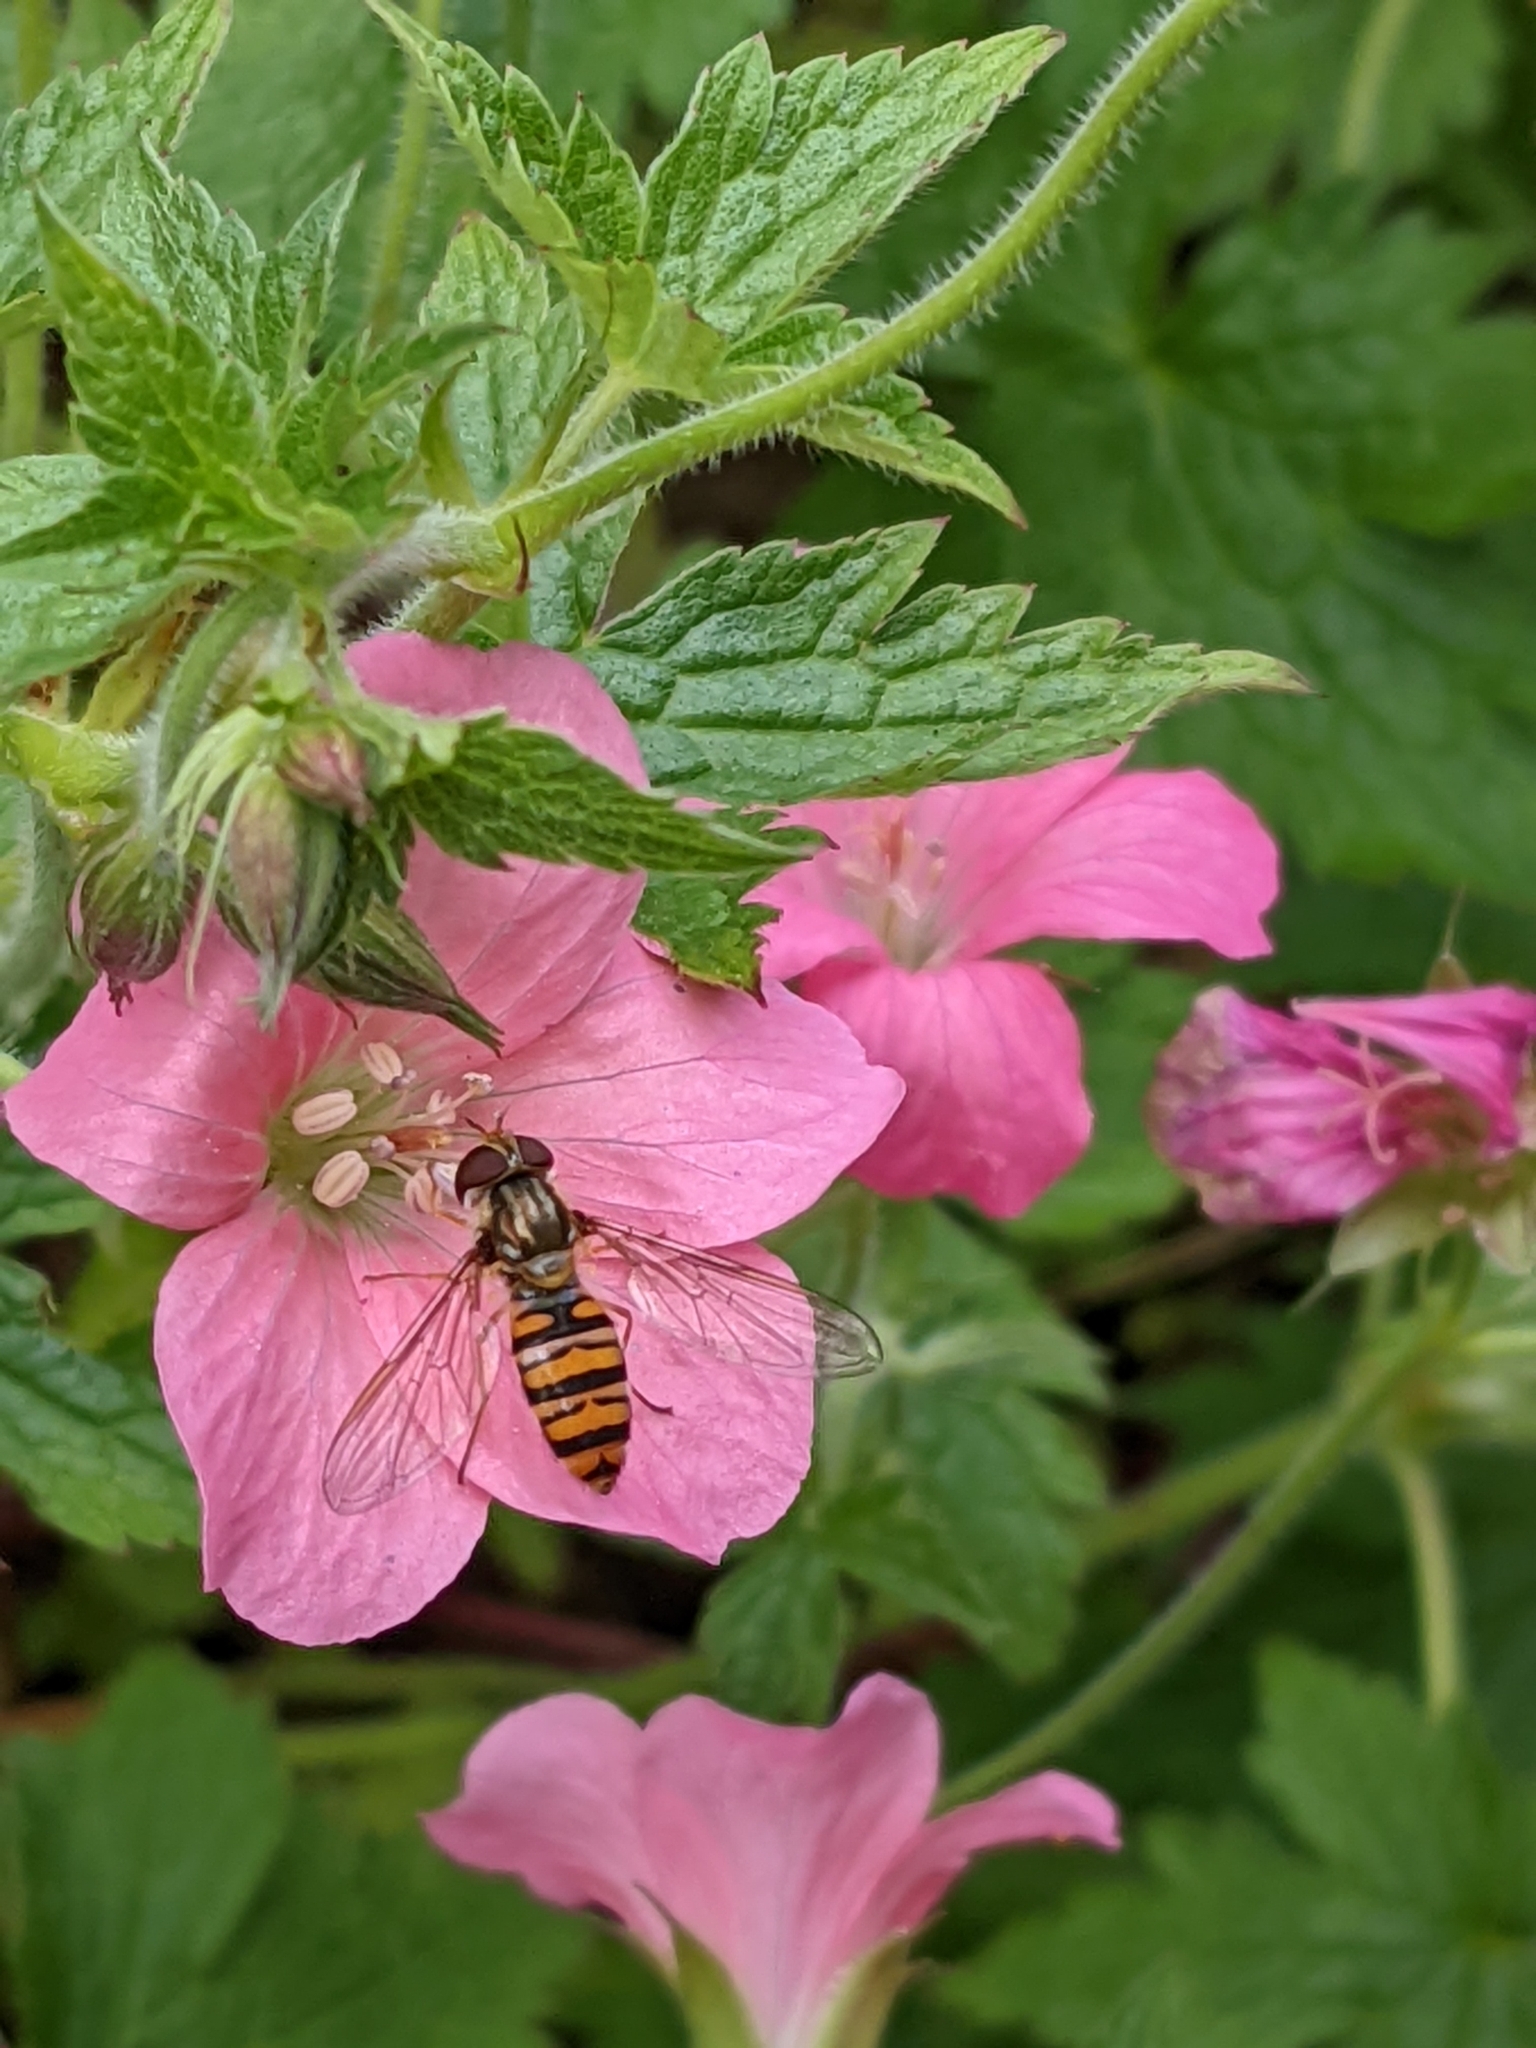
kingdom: Animalia
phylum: Arthropoda
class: Insecta
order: Diptera
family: Syrphidae
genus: Episyrphus
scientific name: Episyrphus balteatus
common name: Marmalade hoverfly
